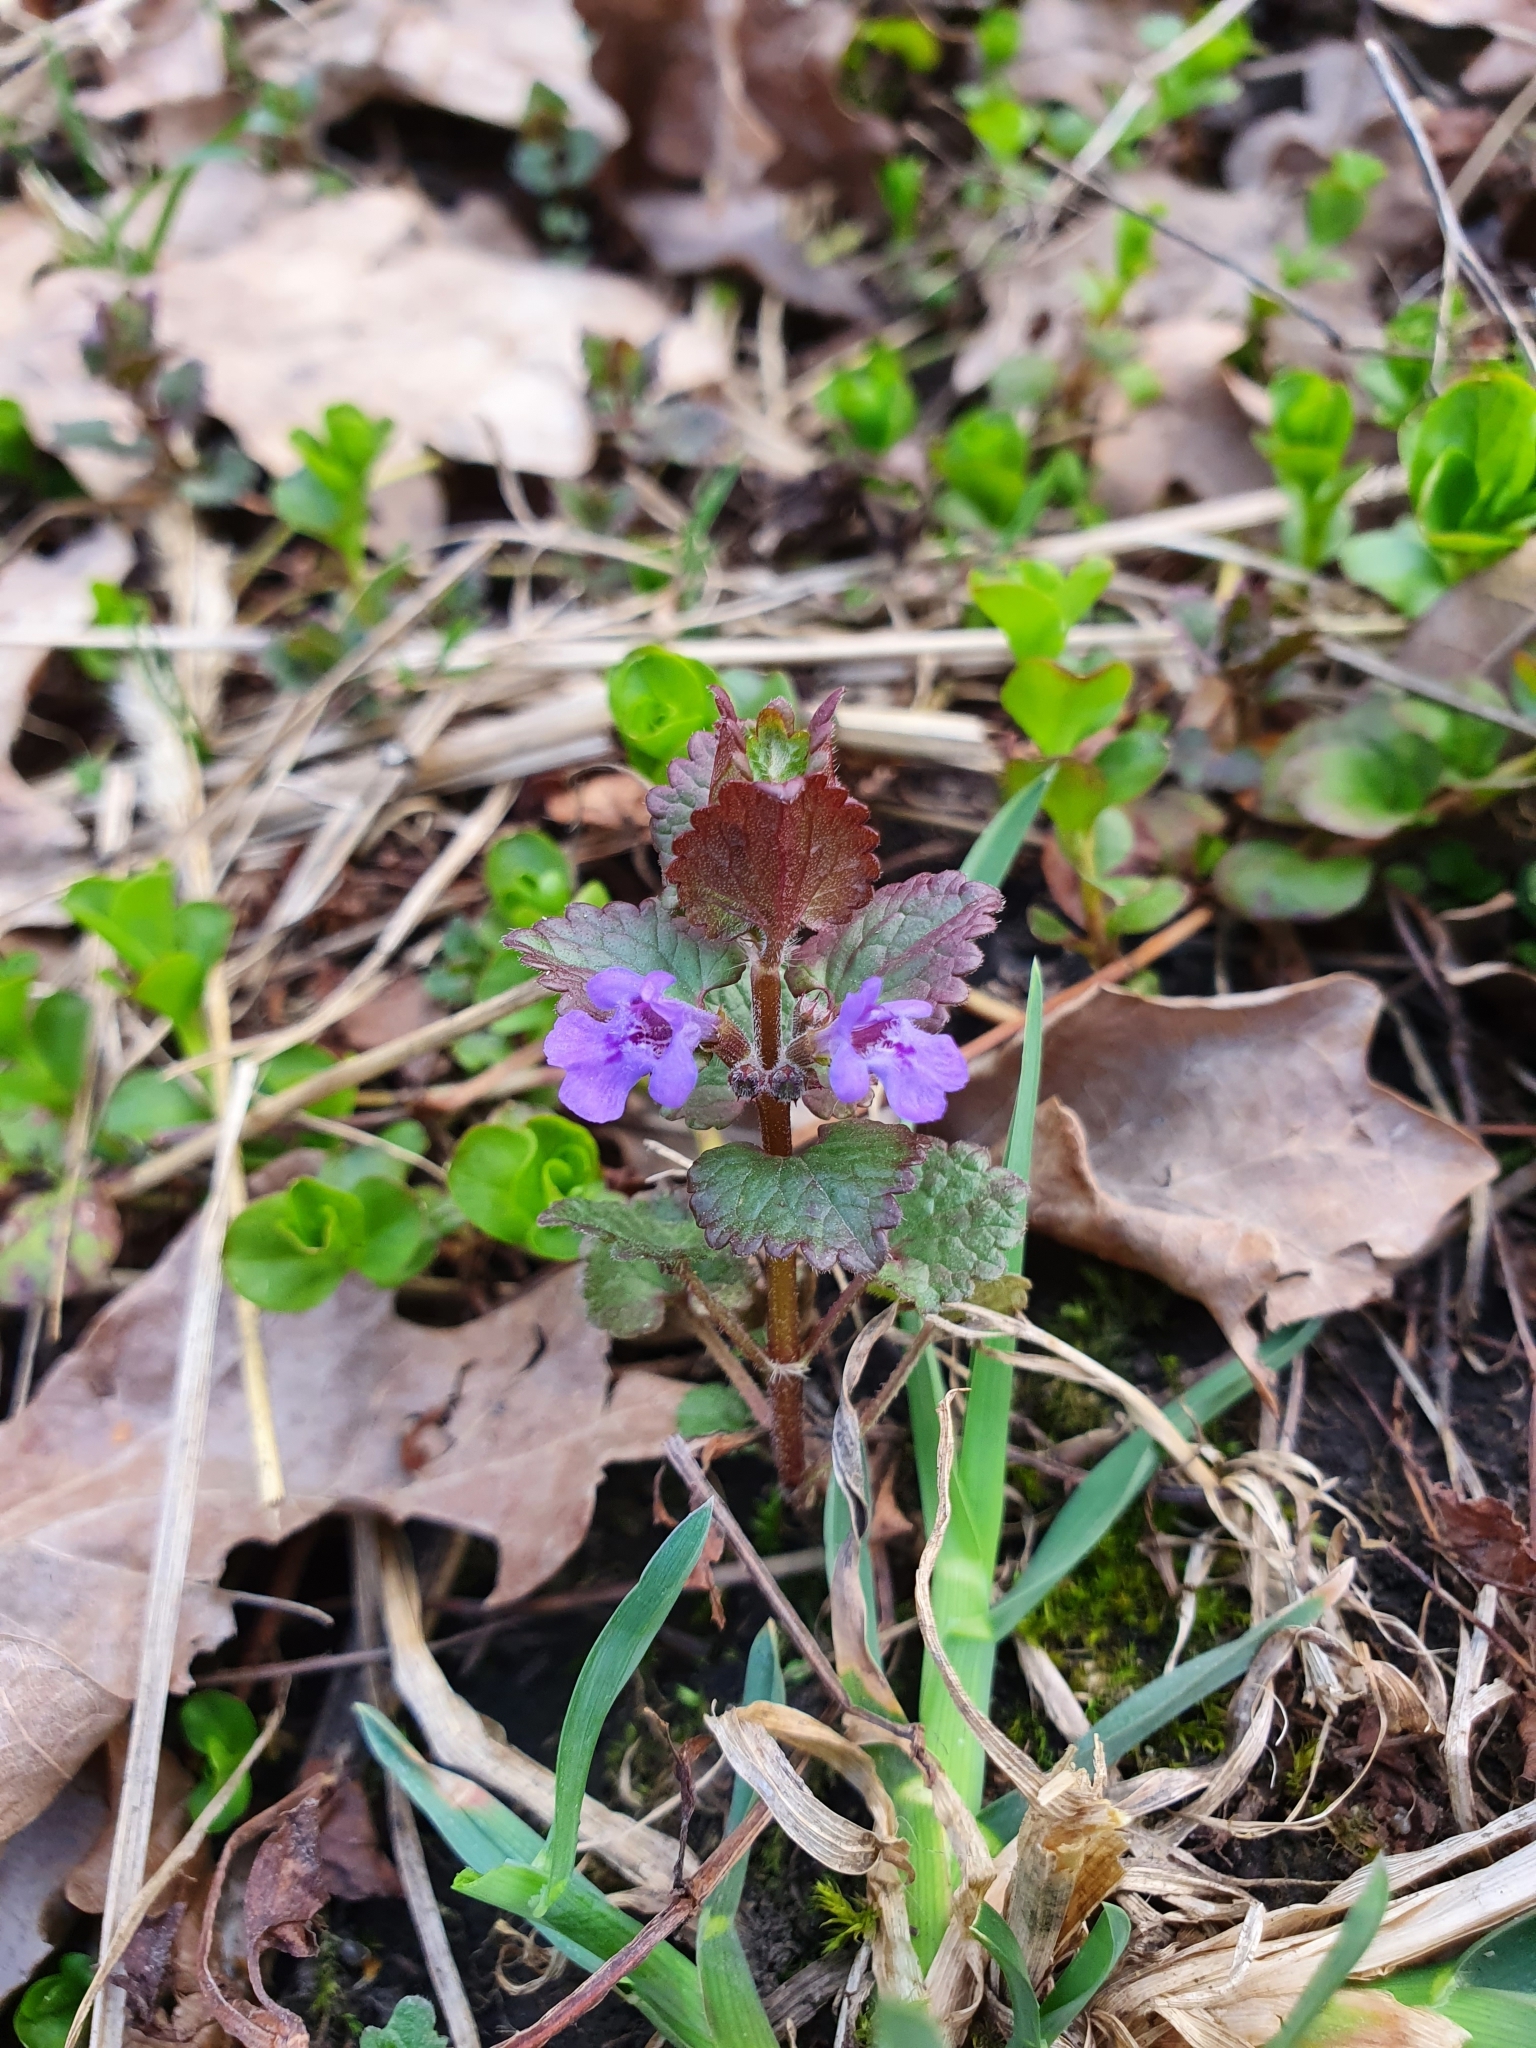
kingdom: Plantae
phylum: Tracheophyta
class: Magnoliopsida
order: Lamiales
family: Lamiaceae
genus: Glechoma
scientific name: Glechoma hederacea
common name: Ground ivy
